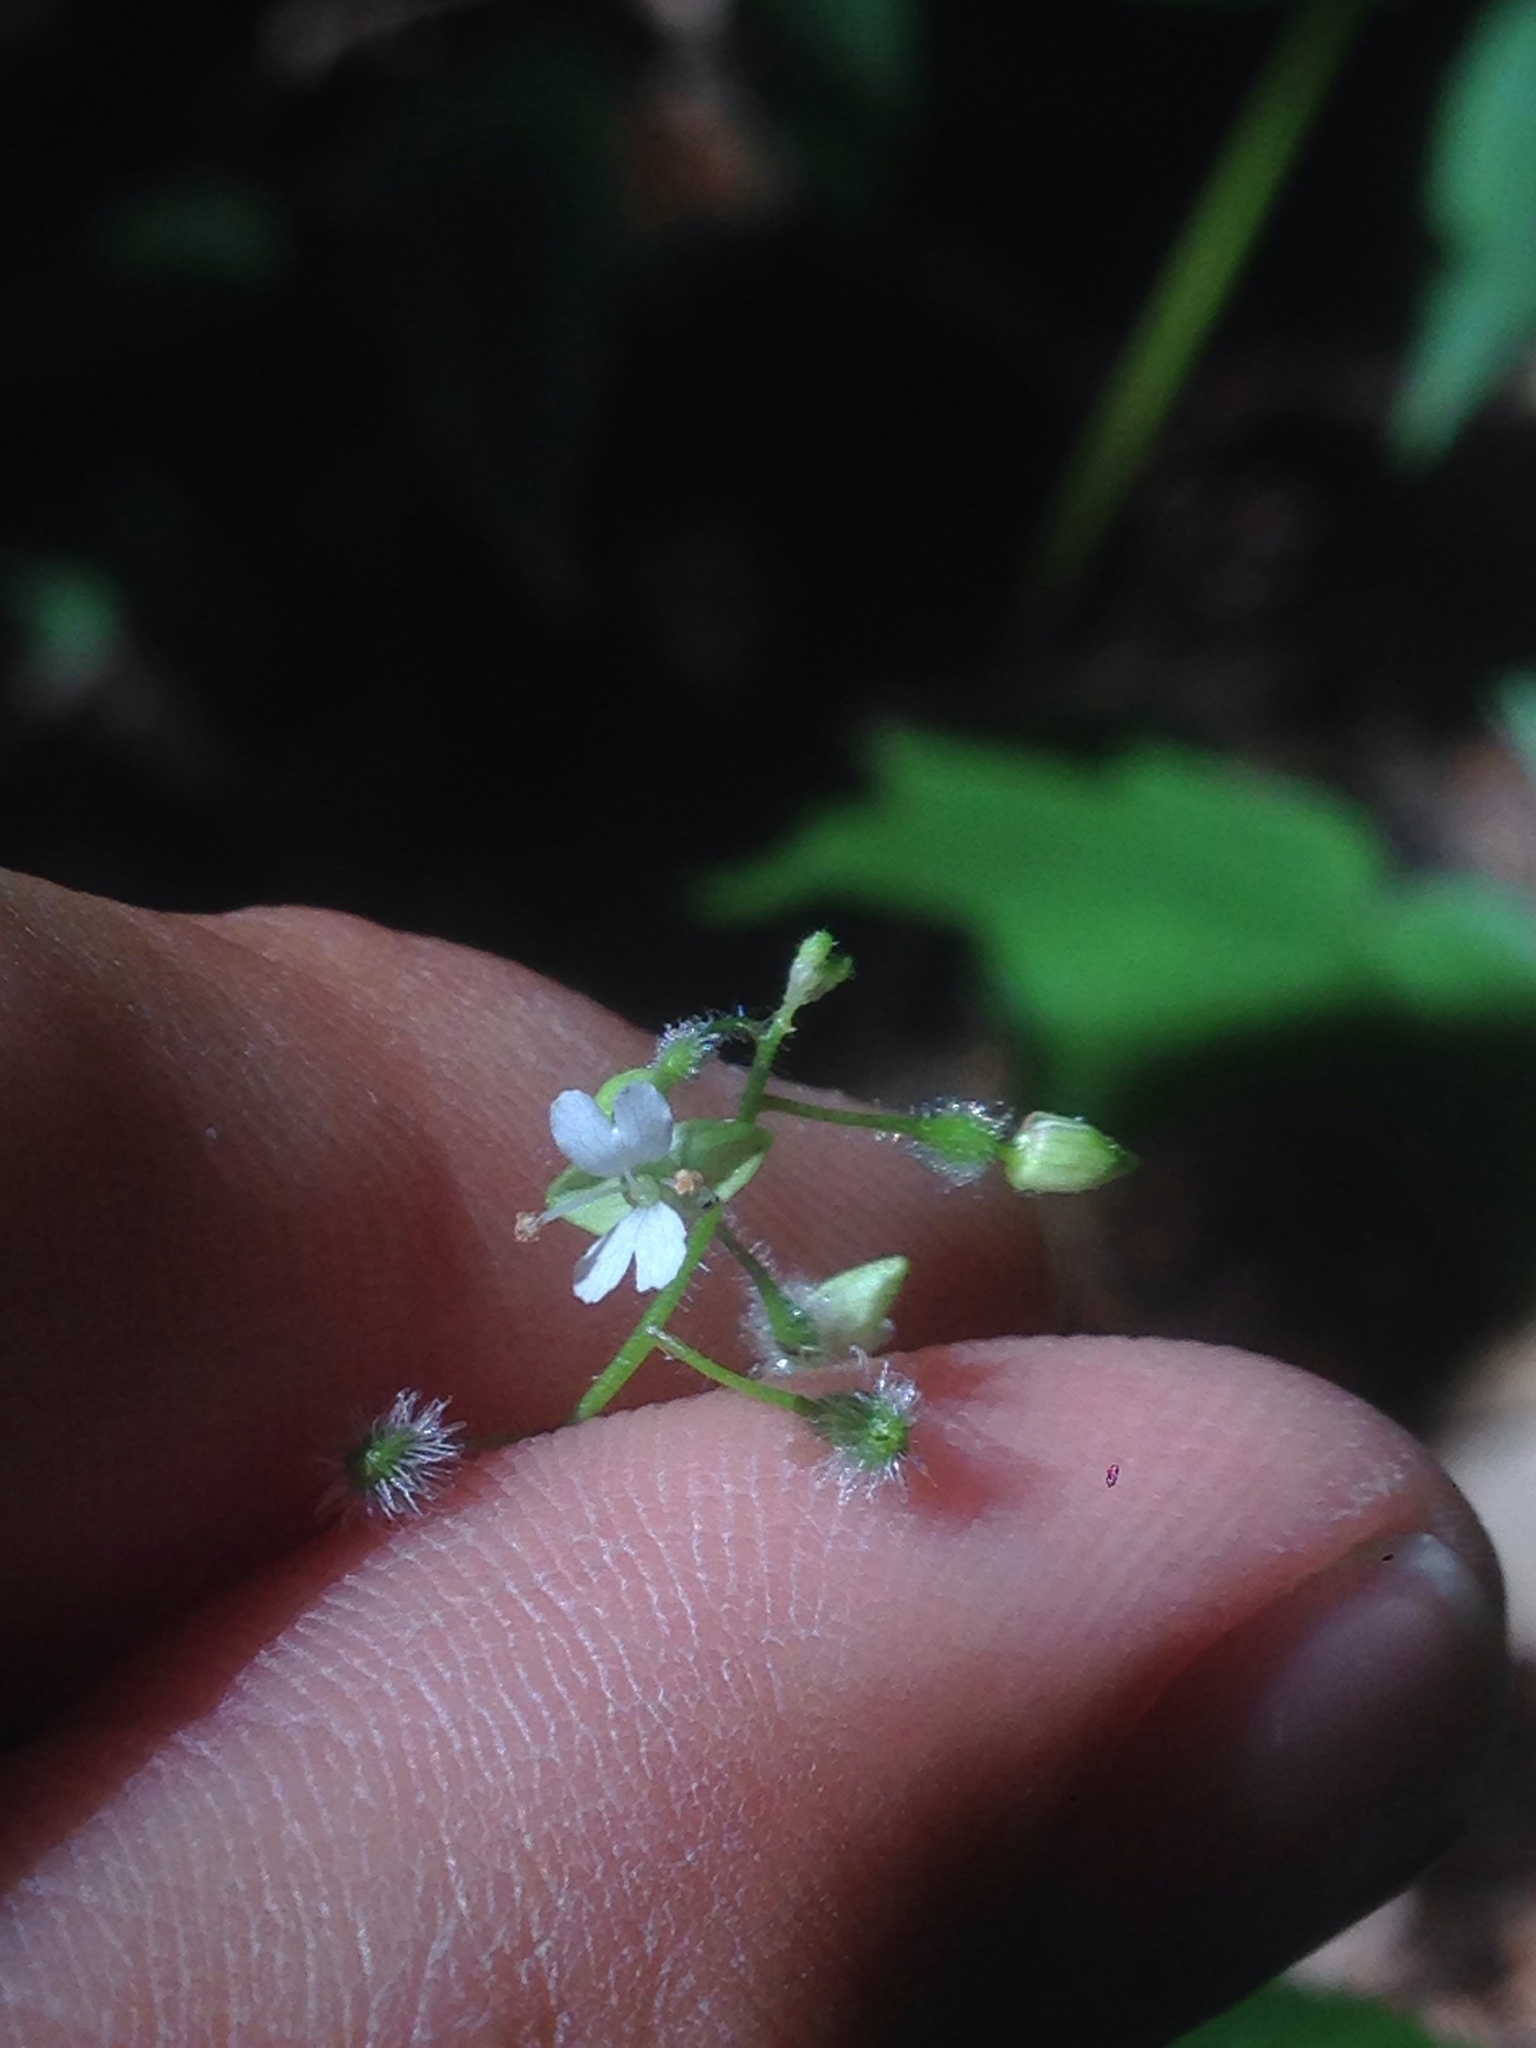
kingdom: Plantae
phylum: Tracheophyta
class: Magnoliopsida
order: Myrtales
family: Onagraceae
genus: Circaea
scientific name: Circaea canadensis
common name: Broad-leaved enchanter's nightshade
